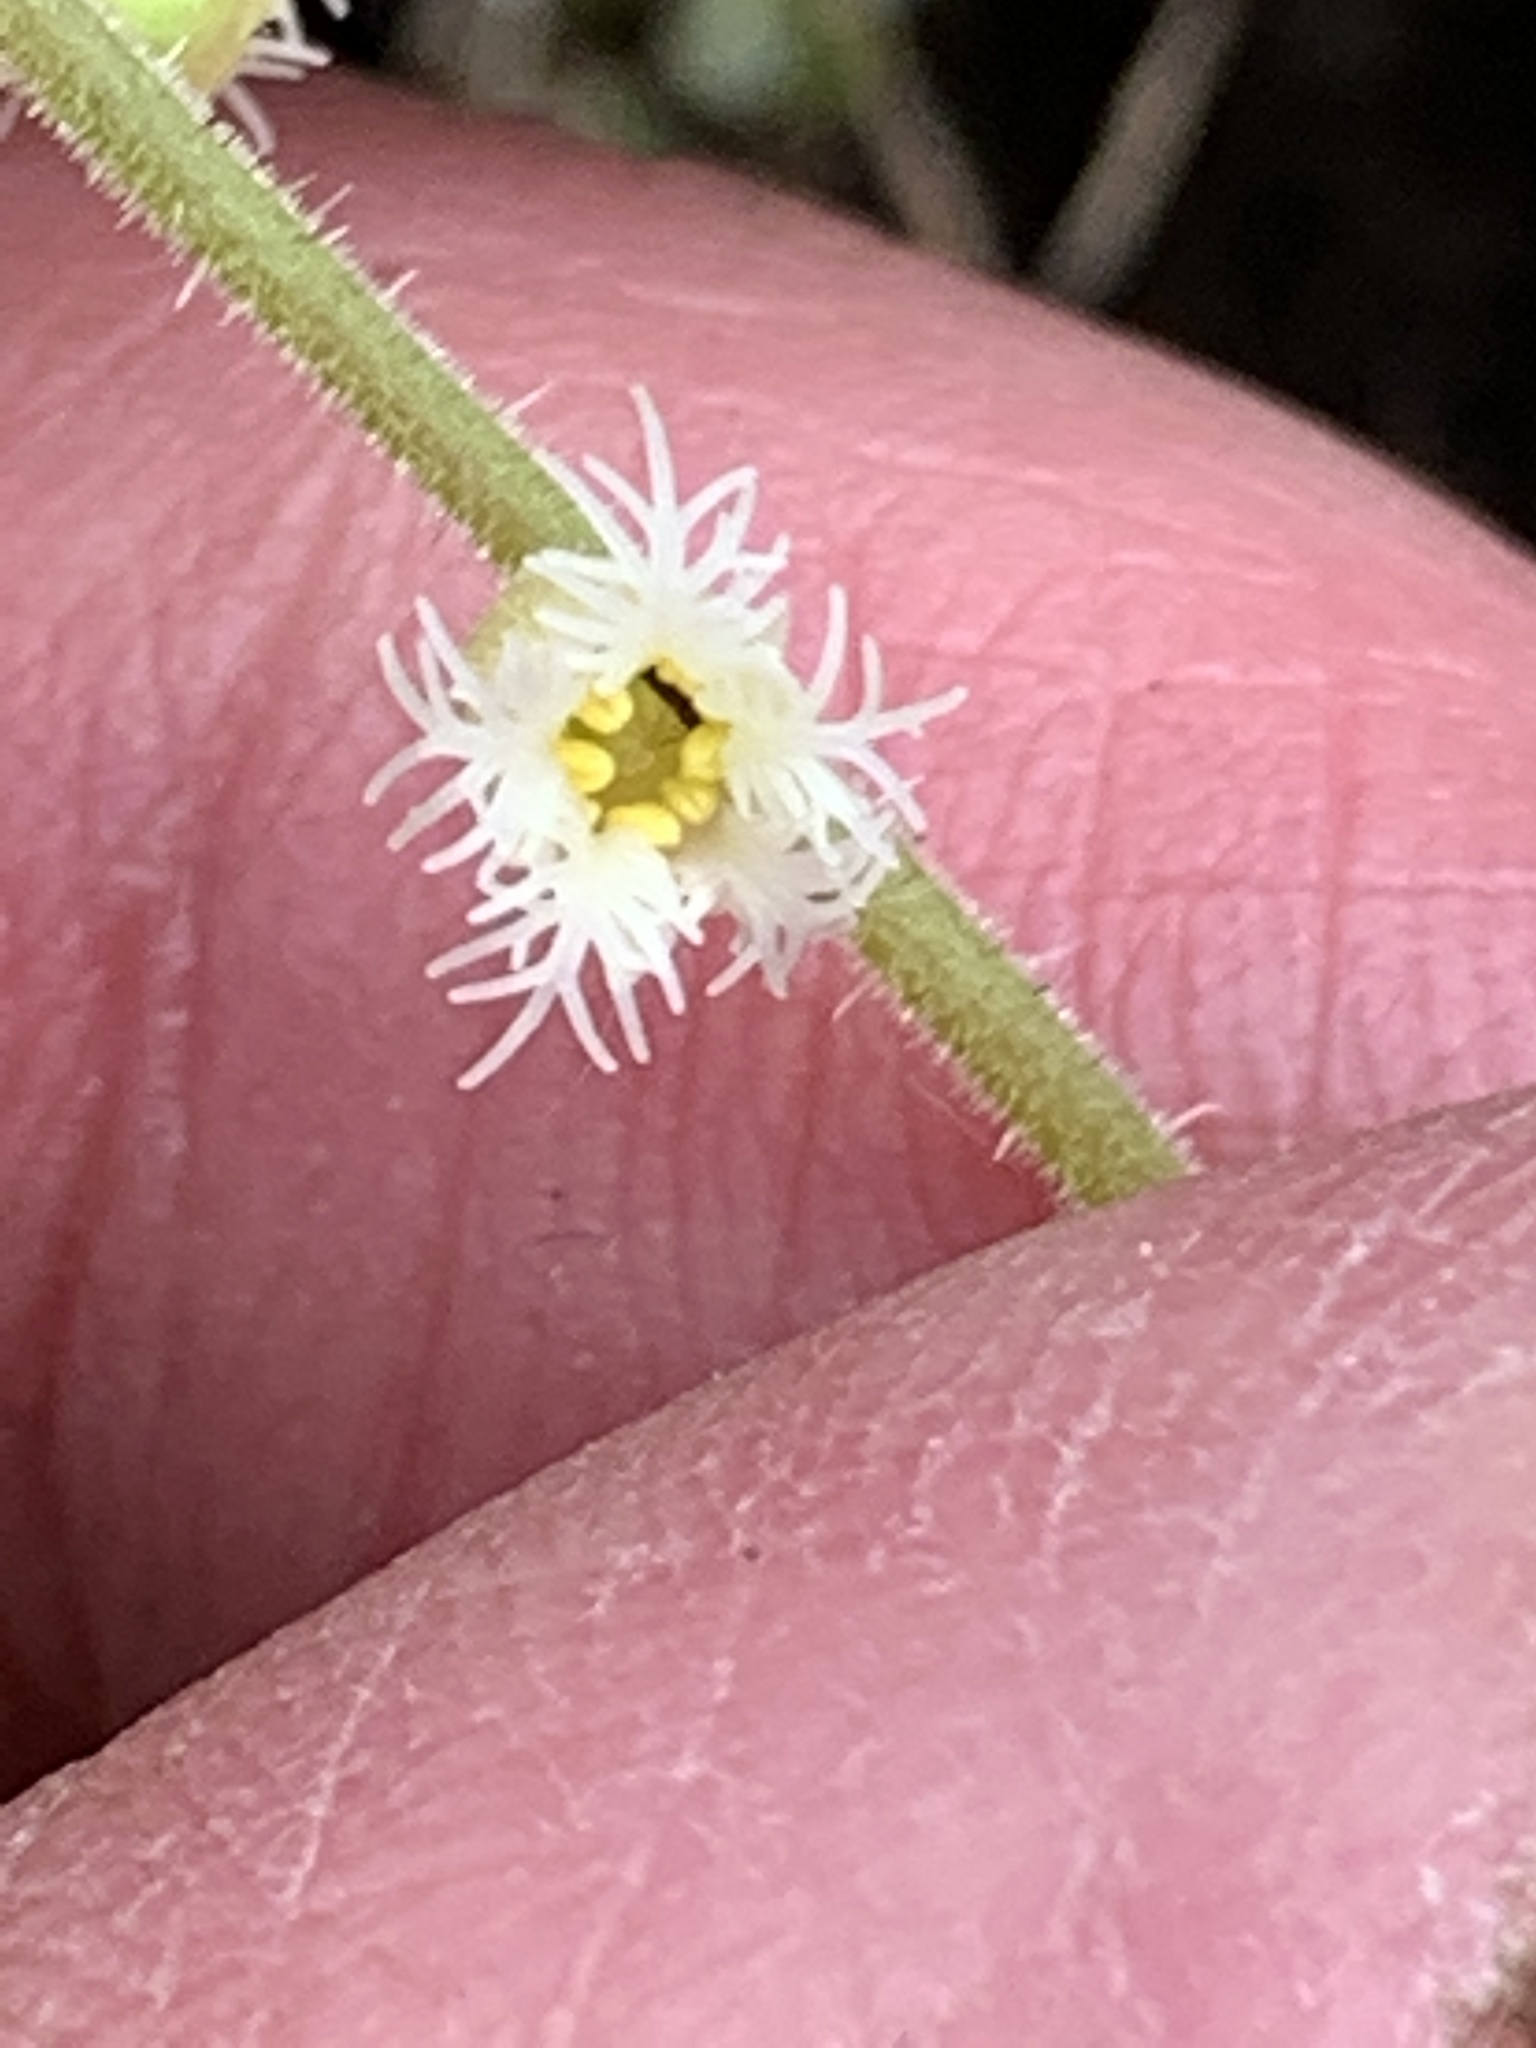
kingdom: Plantae
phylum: Tracheophyta
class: Magnoliopsida
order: Saxifragales
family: Saxifragaceae
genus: Mitella
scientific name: Mitella diphylla
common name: Coolwort
